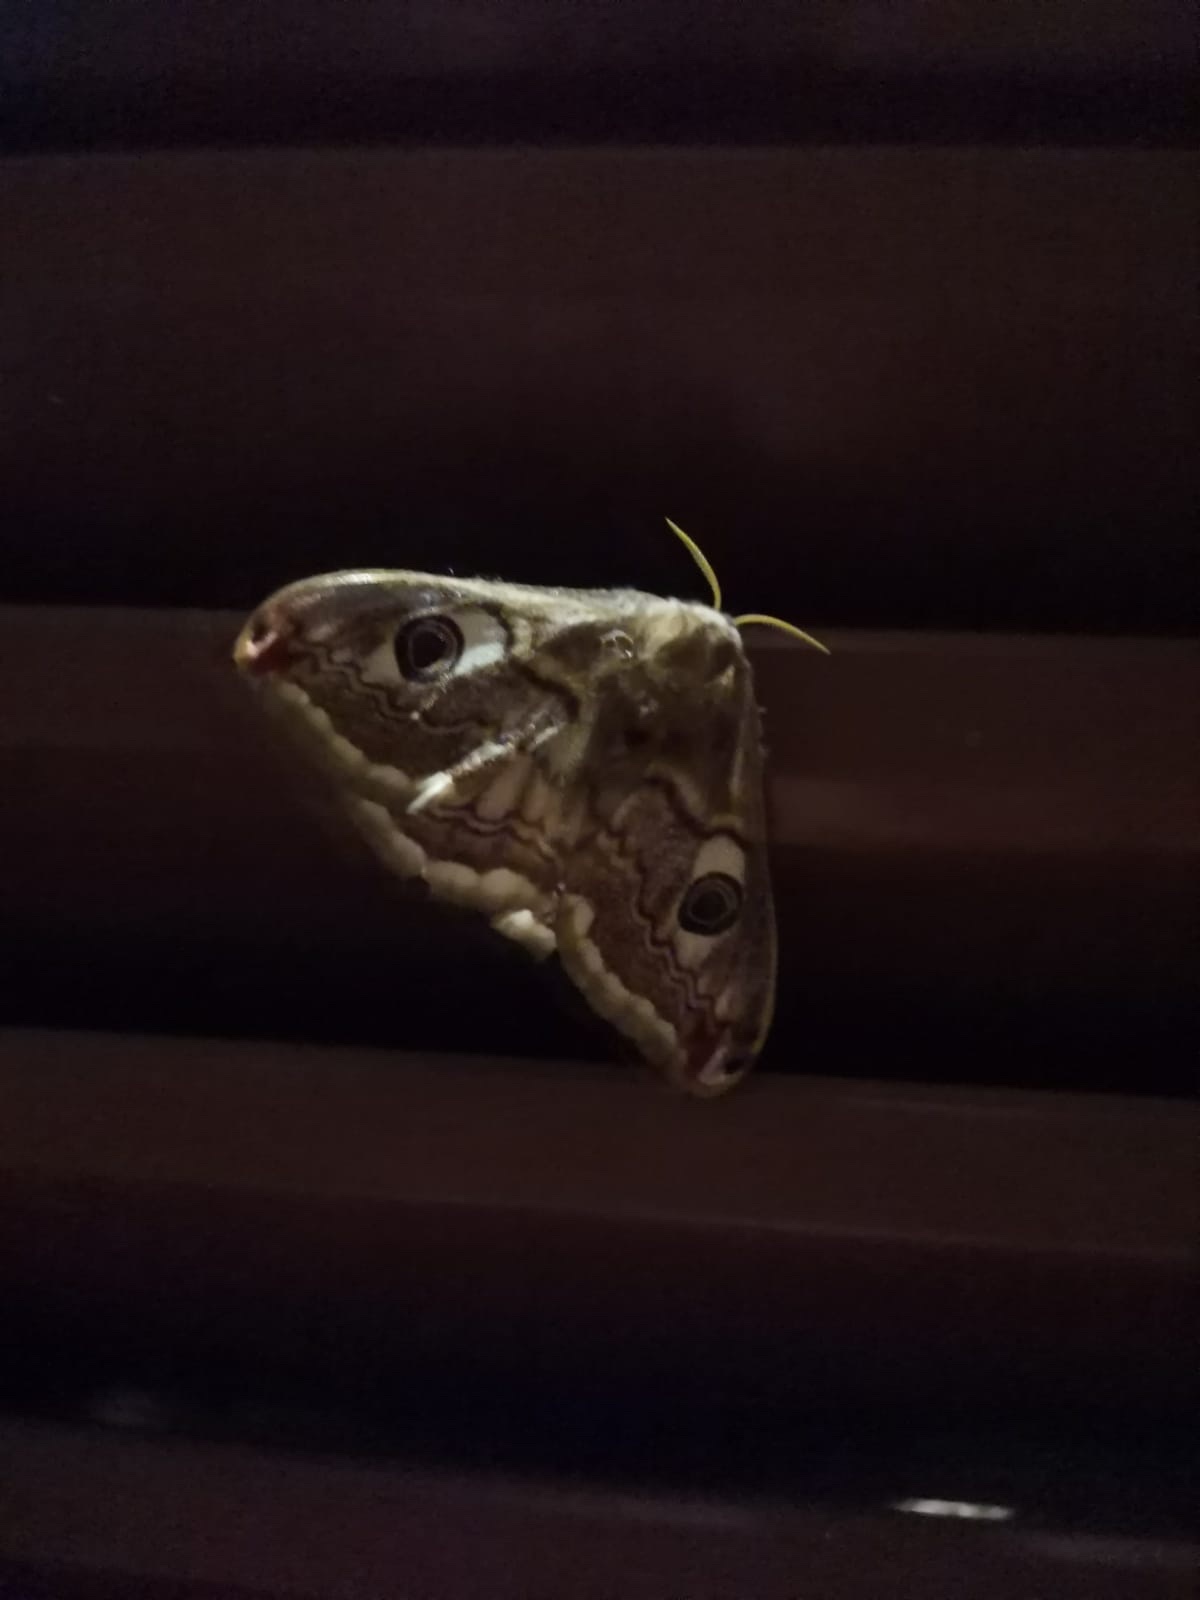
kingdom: Animalia
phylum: Arthropoda
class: Insecta
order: Lepidoptera
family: Saturniidae
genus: Saturnia
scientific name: Saturnia pavoniella
